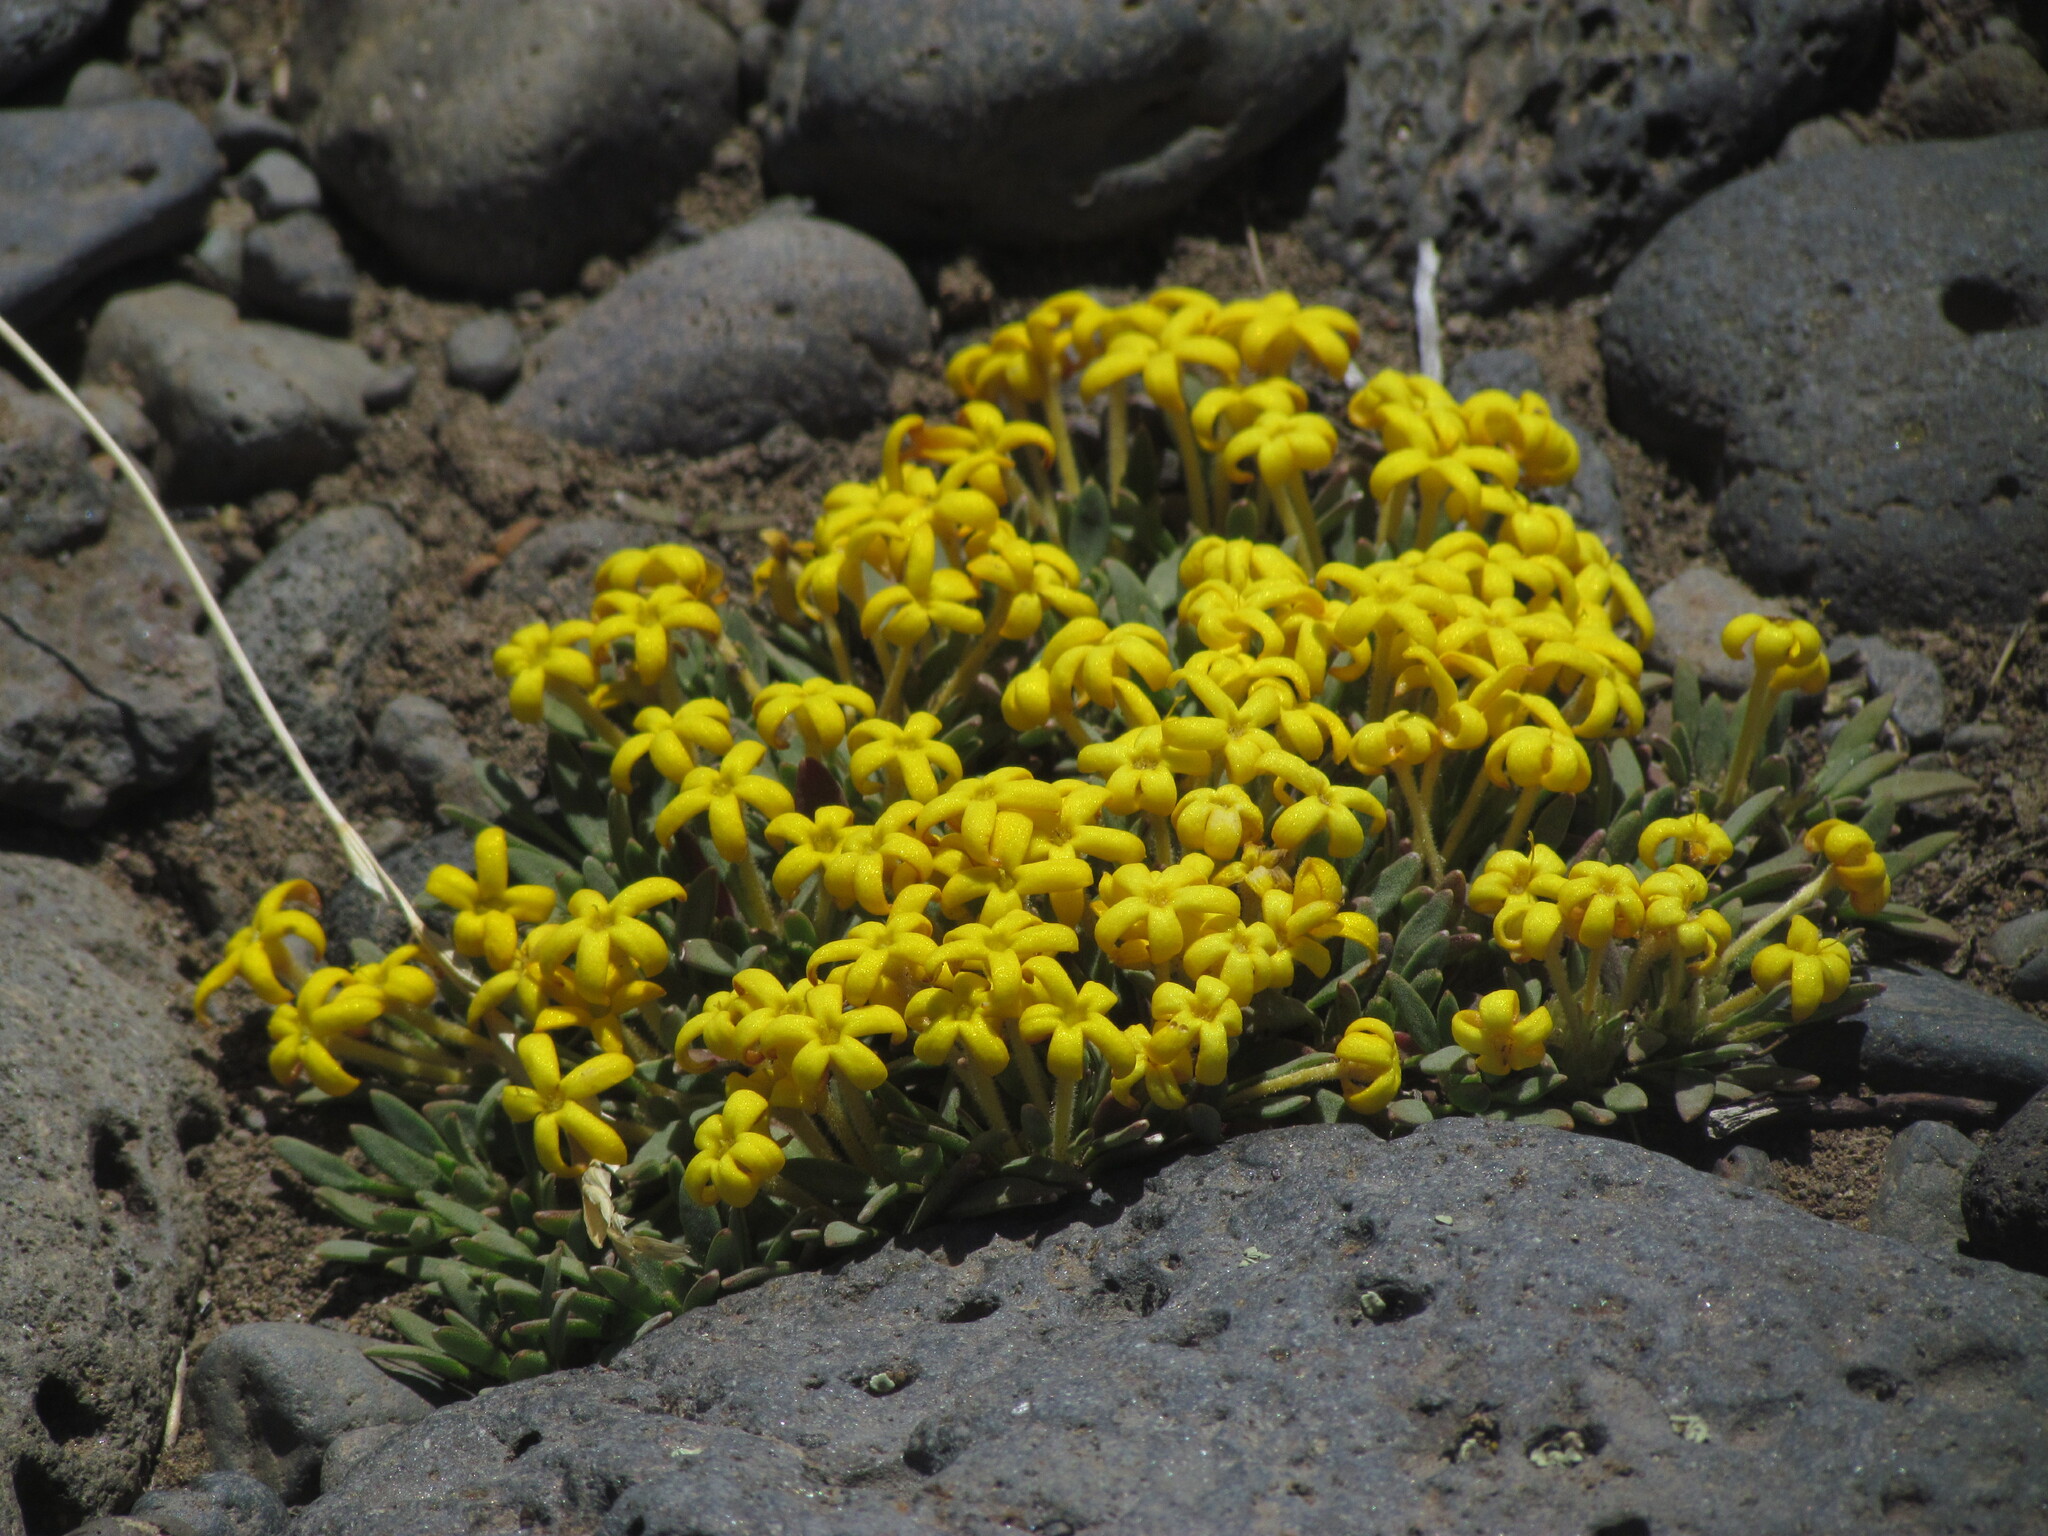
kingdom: Plantae
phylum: Tracheophyta
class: Magnoliopsida
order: Gentianales
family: Rubiaceae
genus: Oreopolus
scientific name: Oreopolus glacialis
